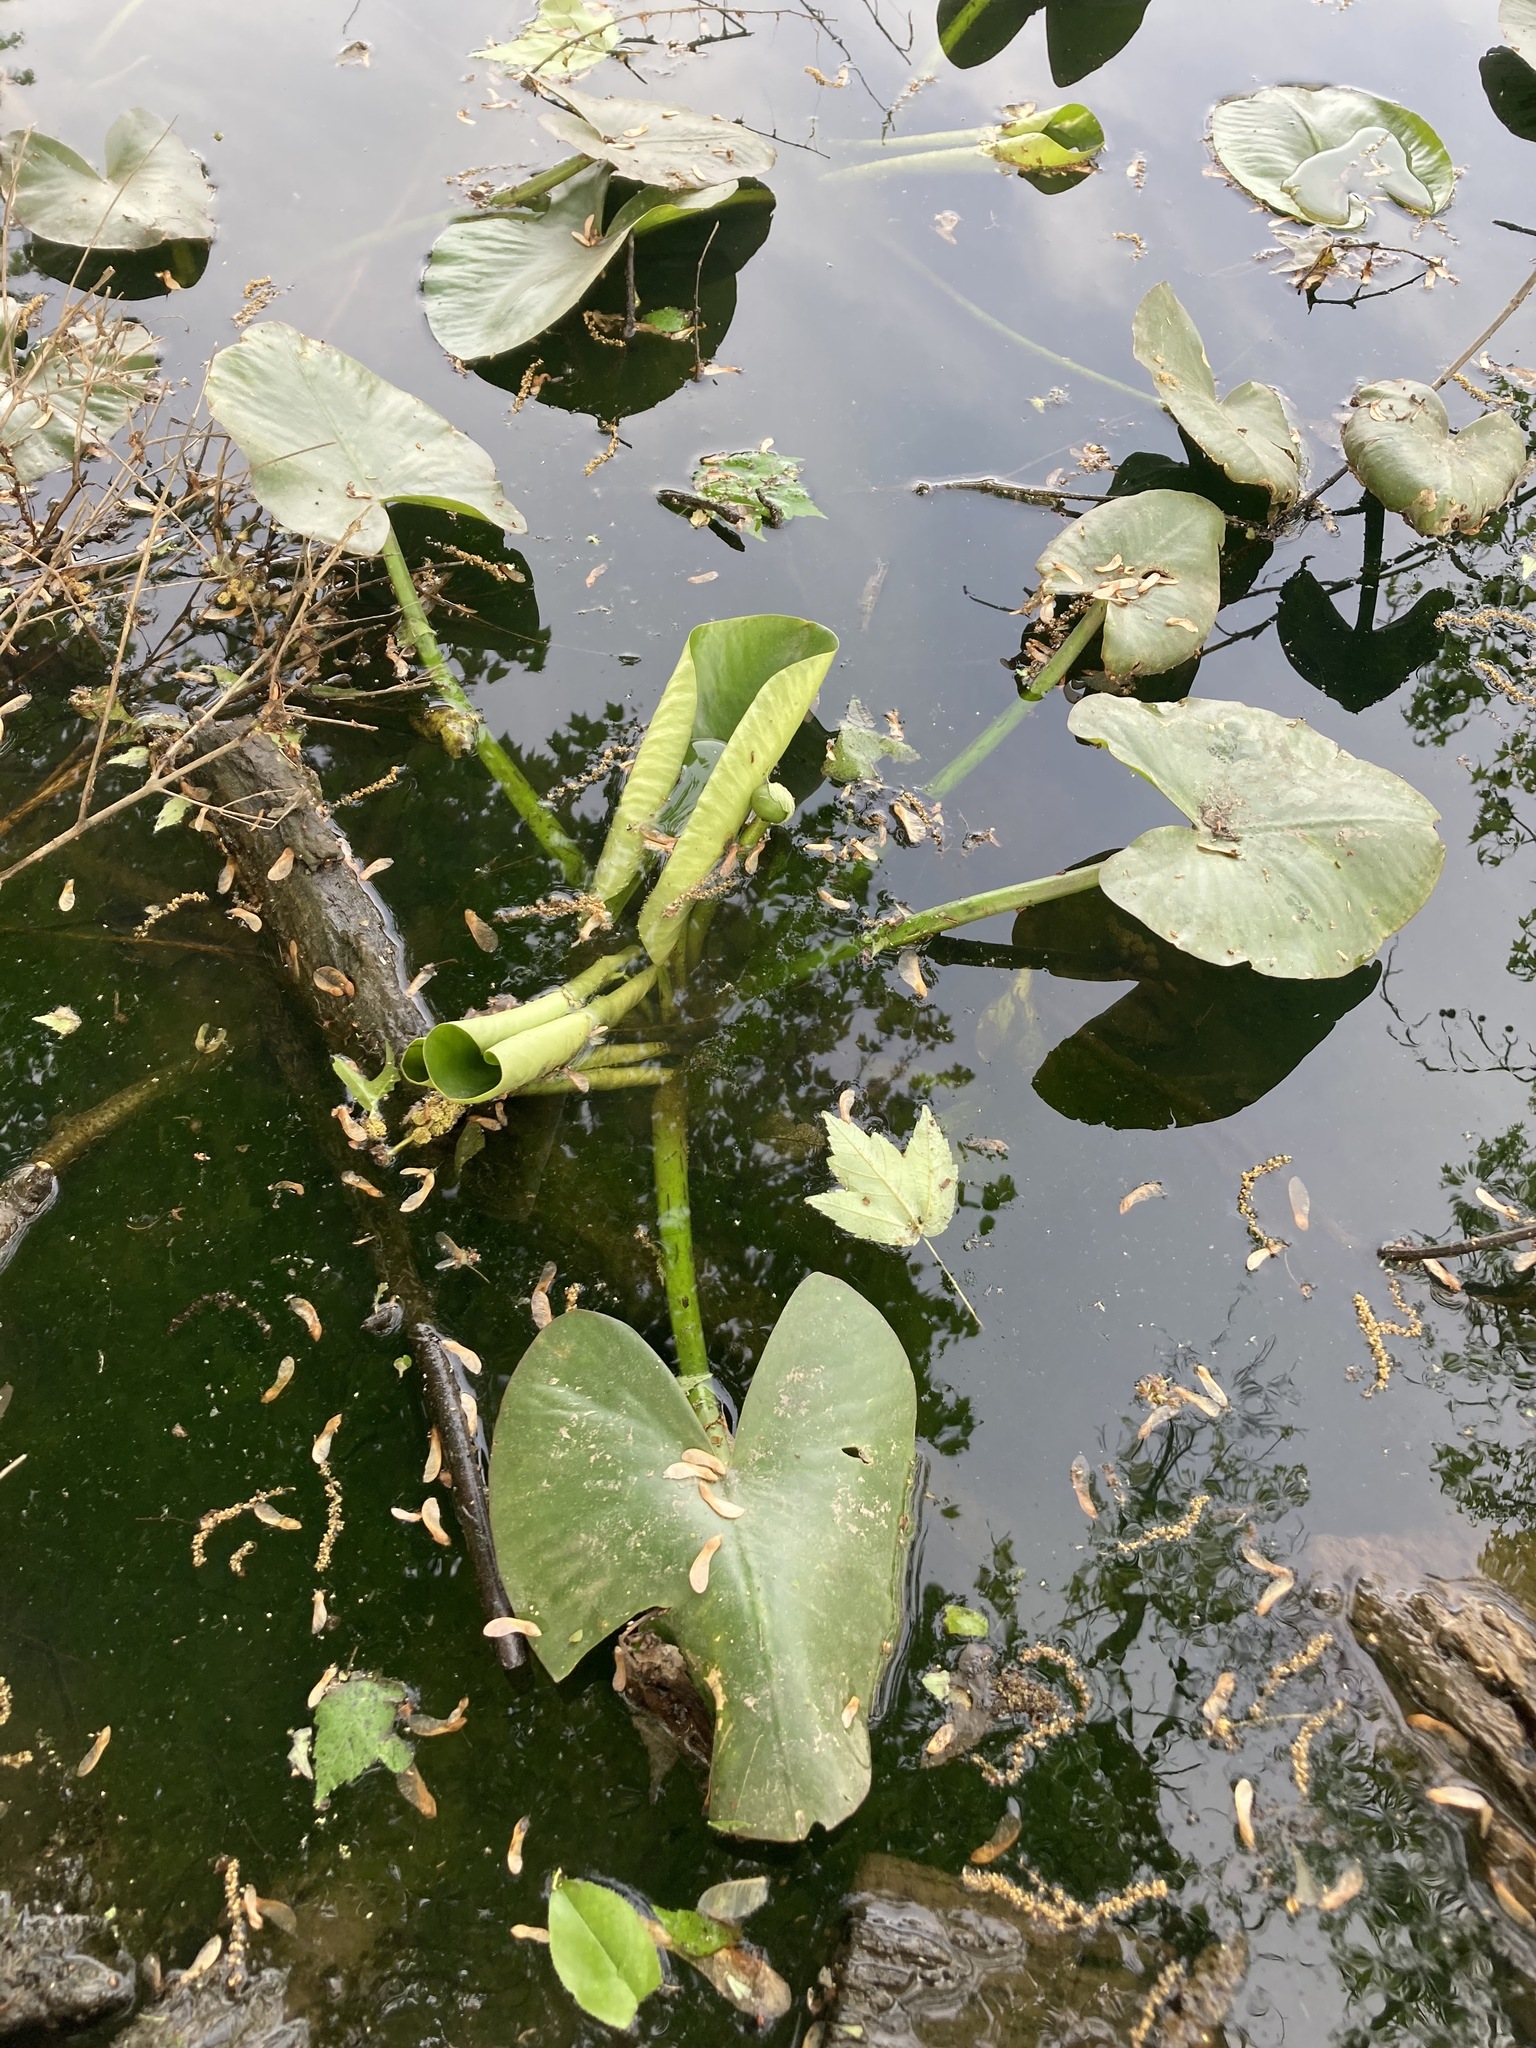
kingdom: Plantae
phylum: Tracheophyta
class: Magnoliopsida
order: Nymphaeales
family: Nymphaeaceae
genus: Nuphar
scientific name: Nuphar advena
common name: Spatter-dock
